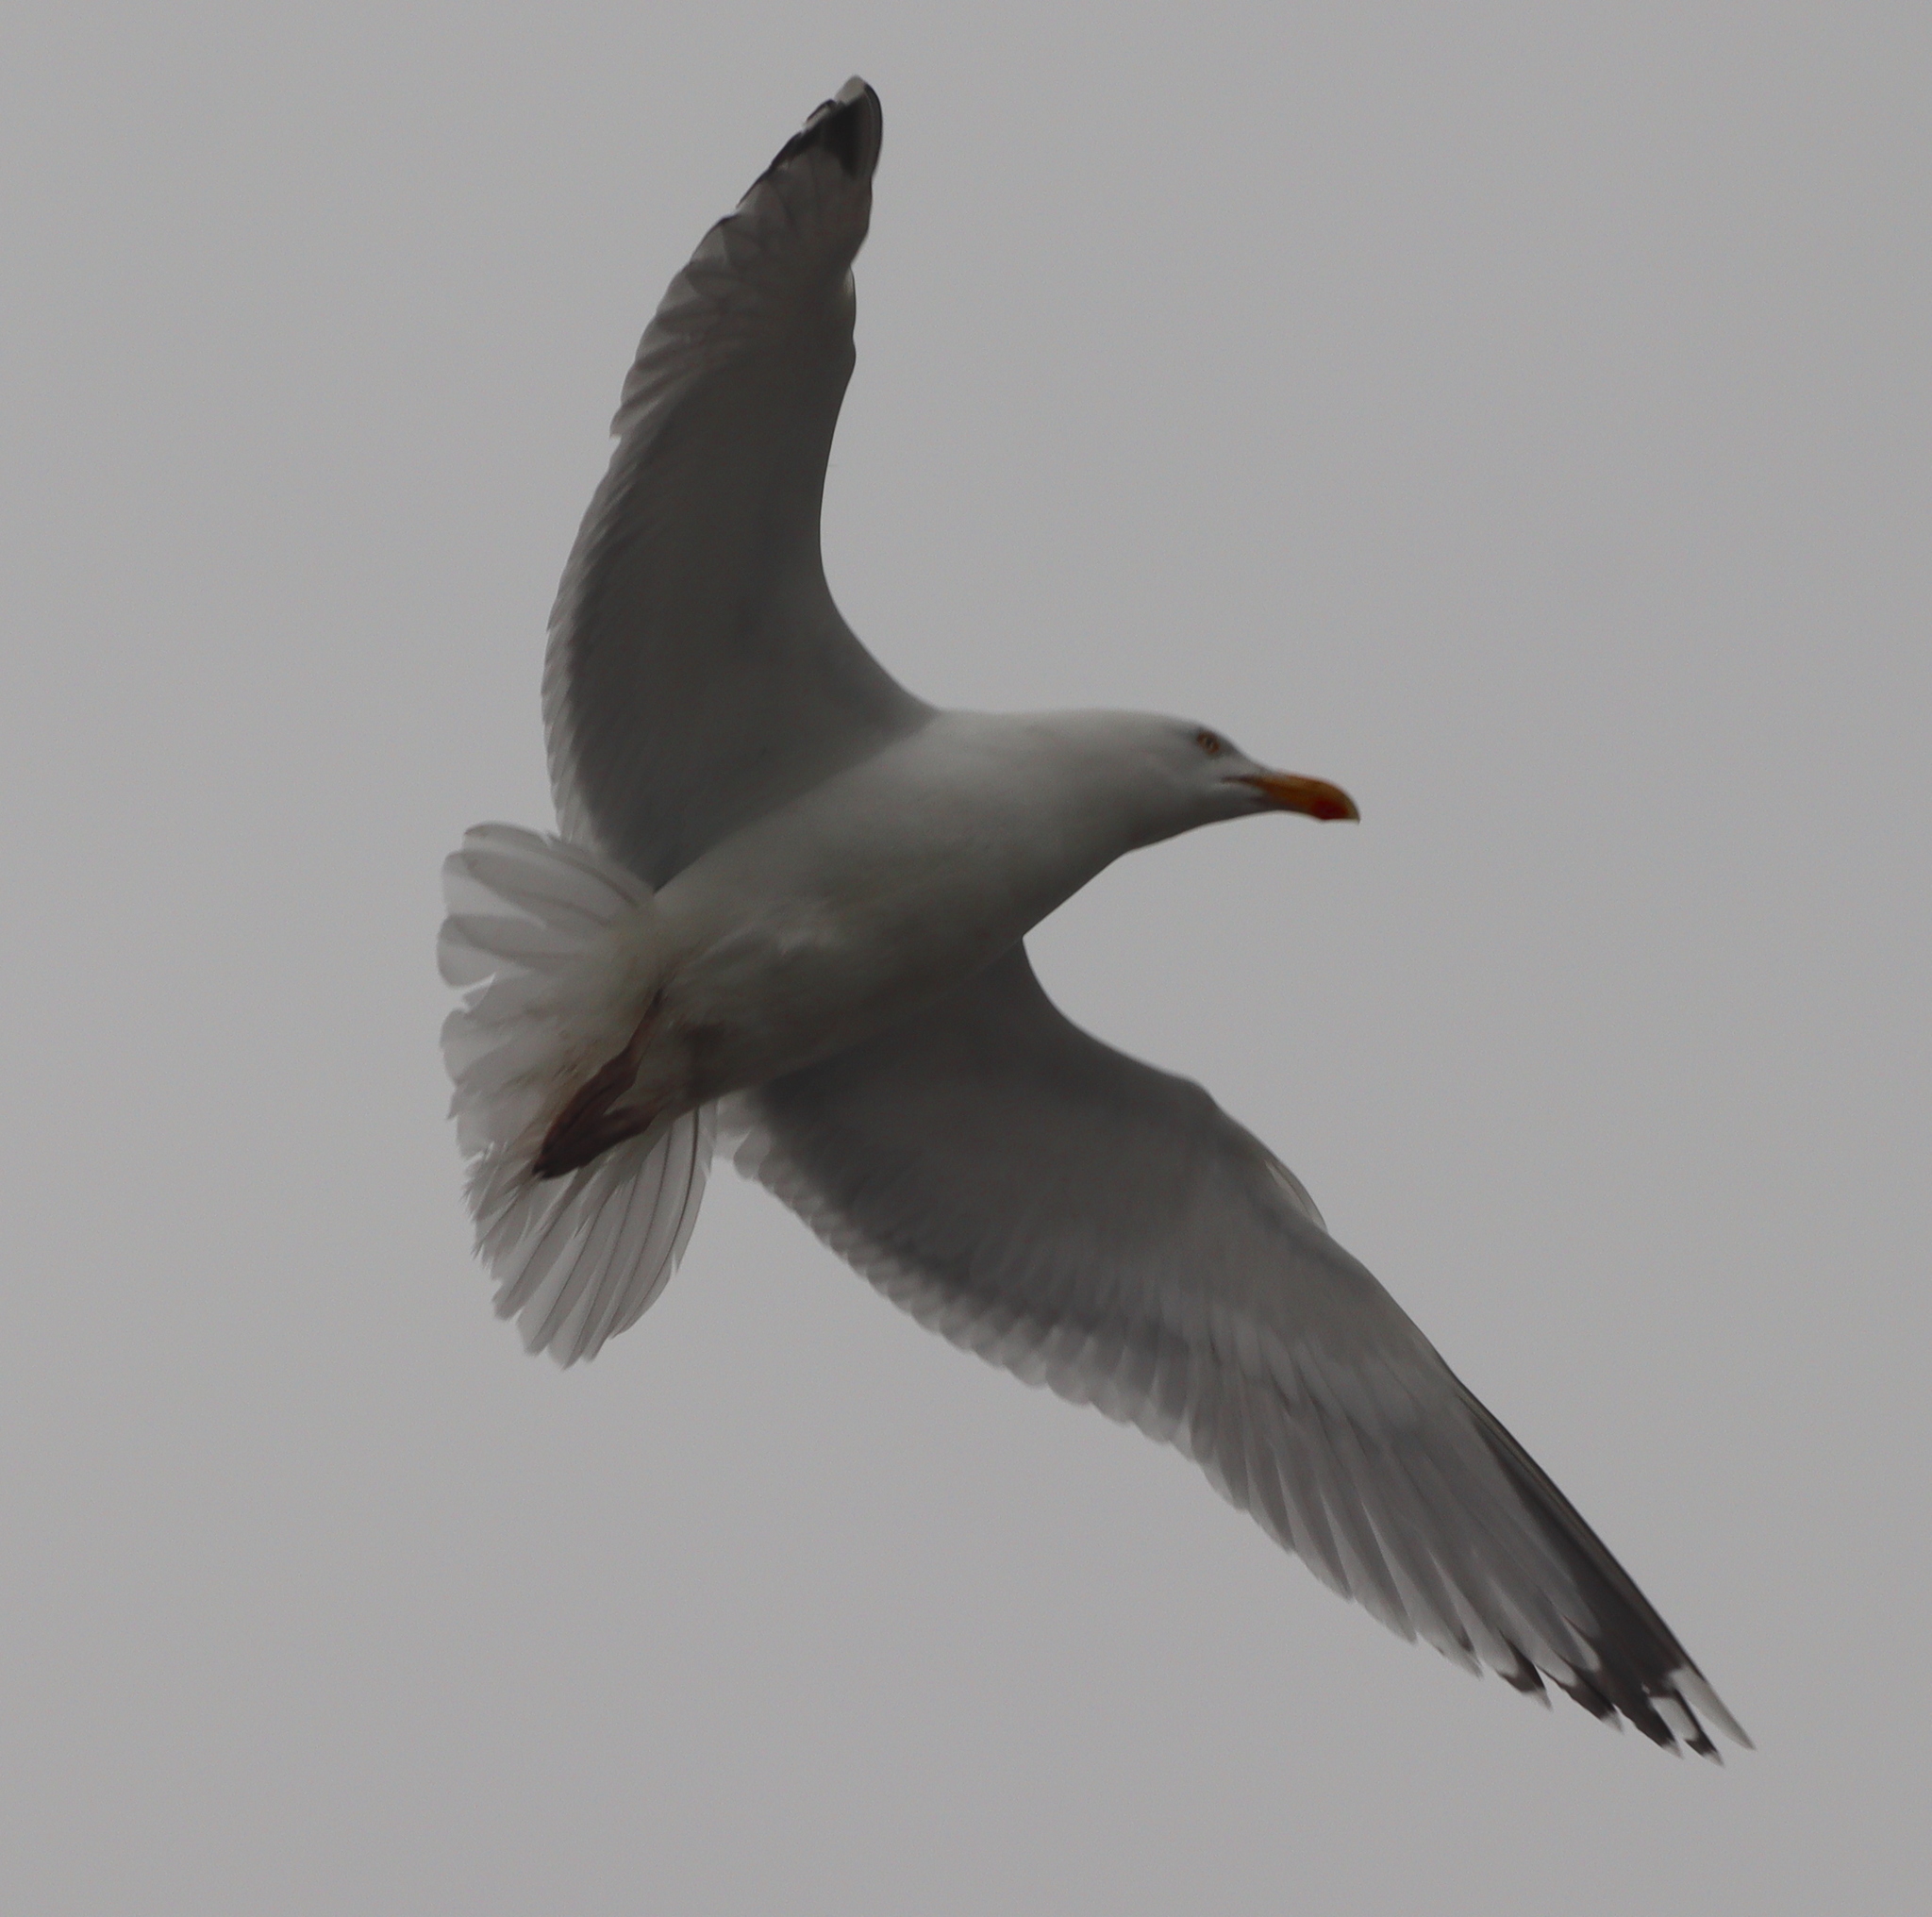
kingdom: Animalia
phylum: Chordata
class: Aves
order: Charadriiformes
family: Laridae
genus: Larus
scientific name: Larus argentatus
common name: Herring gull
